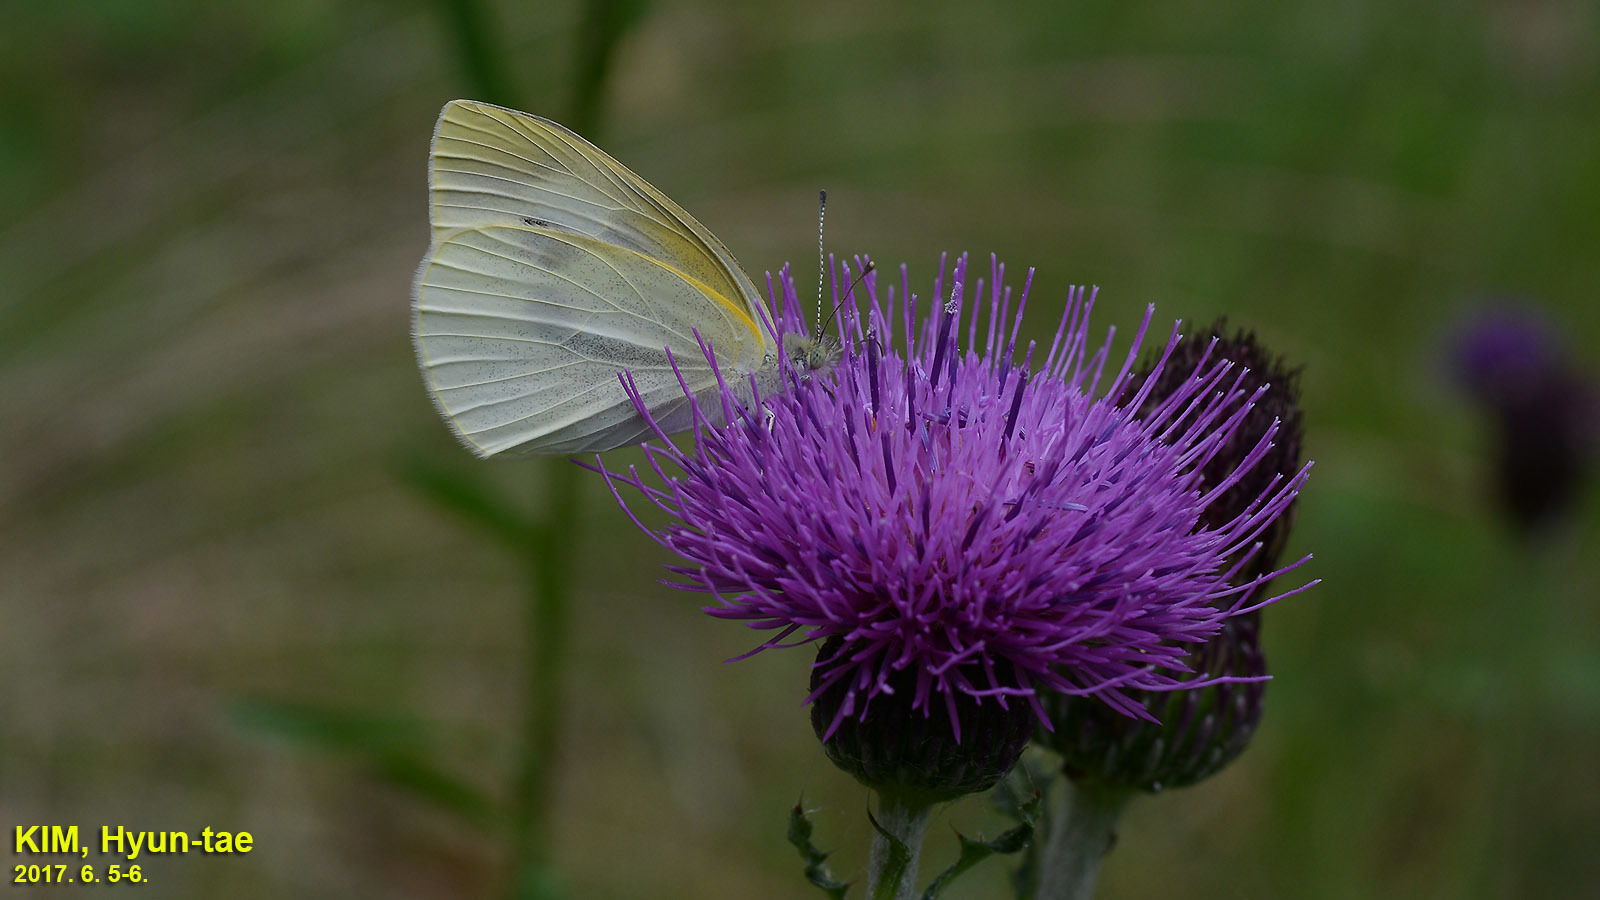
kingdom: Animalia
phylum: Arthropoda
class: Insecta
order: Lepidoptera
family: Pieridae
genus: Pieris
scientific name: Pieris rapae
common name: Small white
